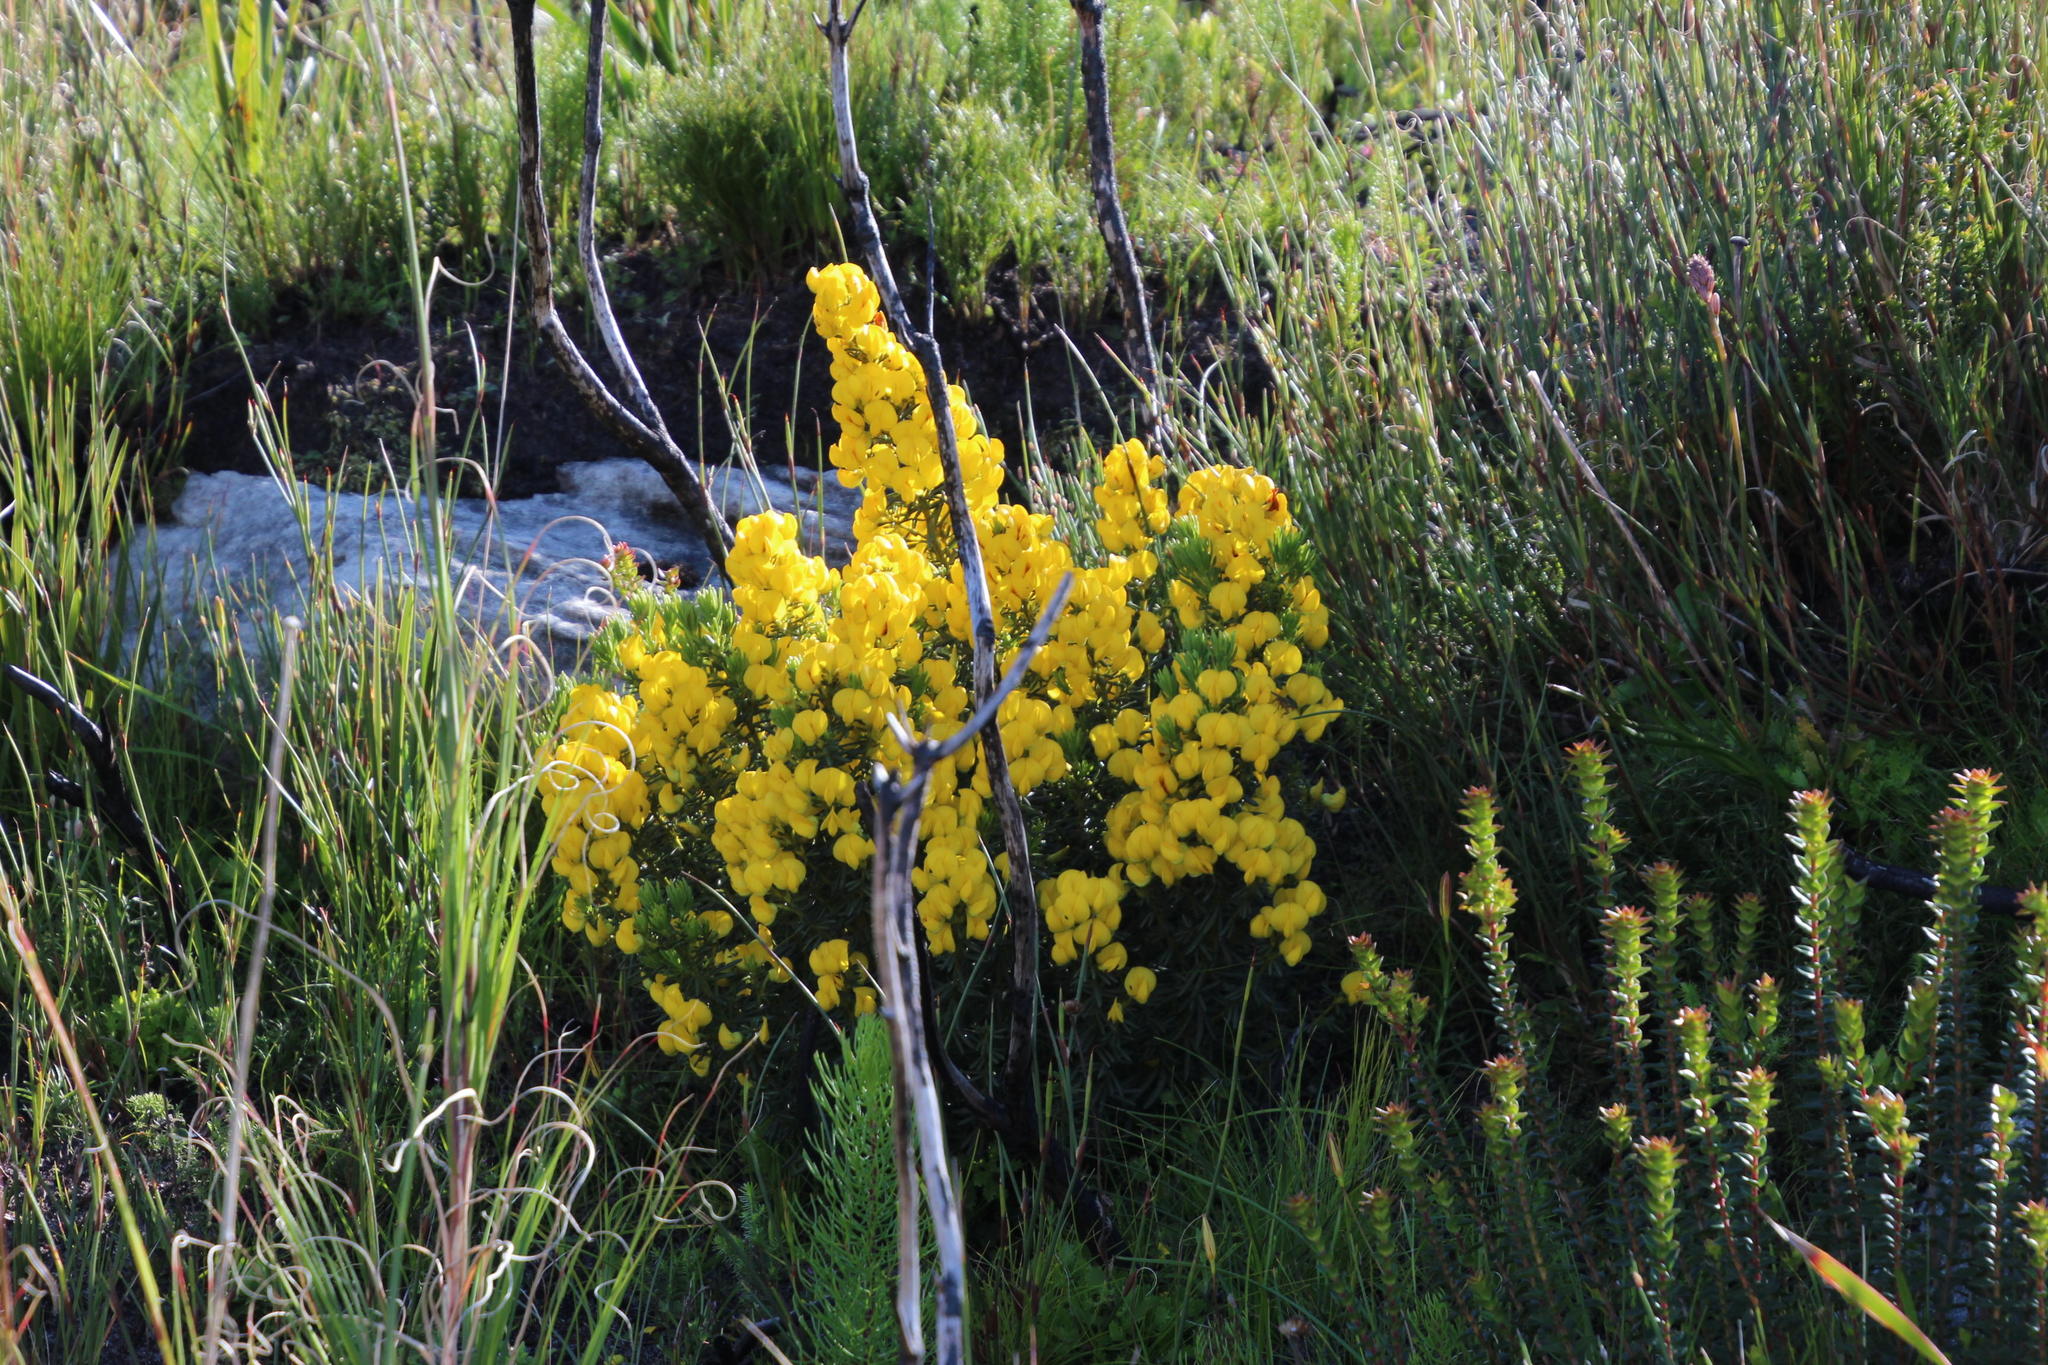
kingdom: Plantae
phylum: Tracheophyta
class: Magnoliopsida
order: Fabales
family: Fabaceae
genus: Cyclopia
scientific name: Cyclopia genistoides
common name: Honeybush tea
